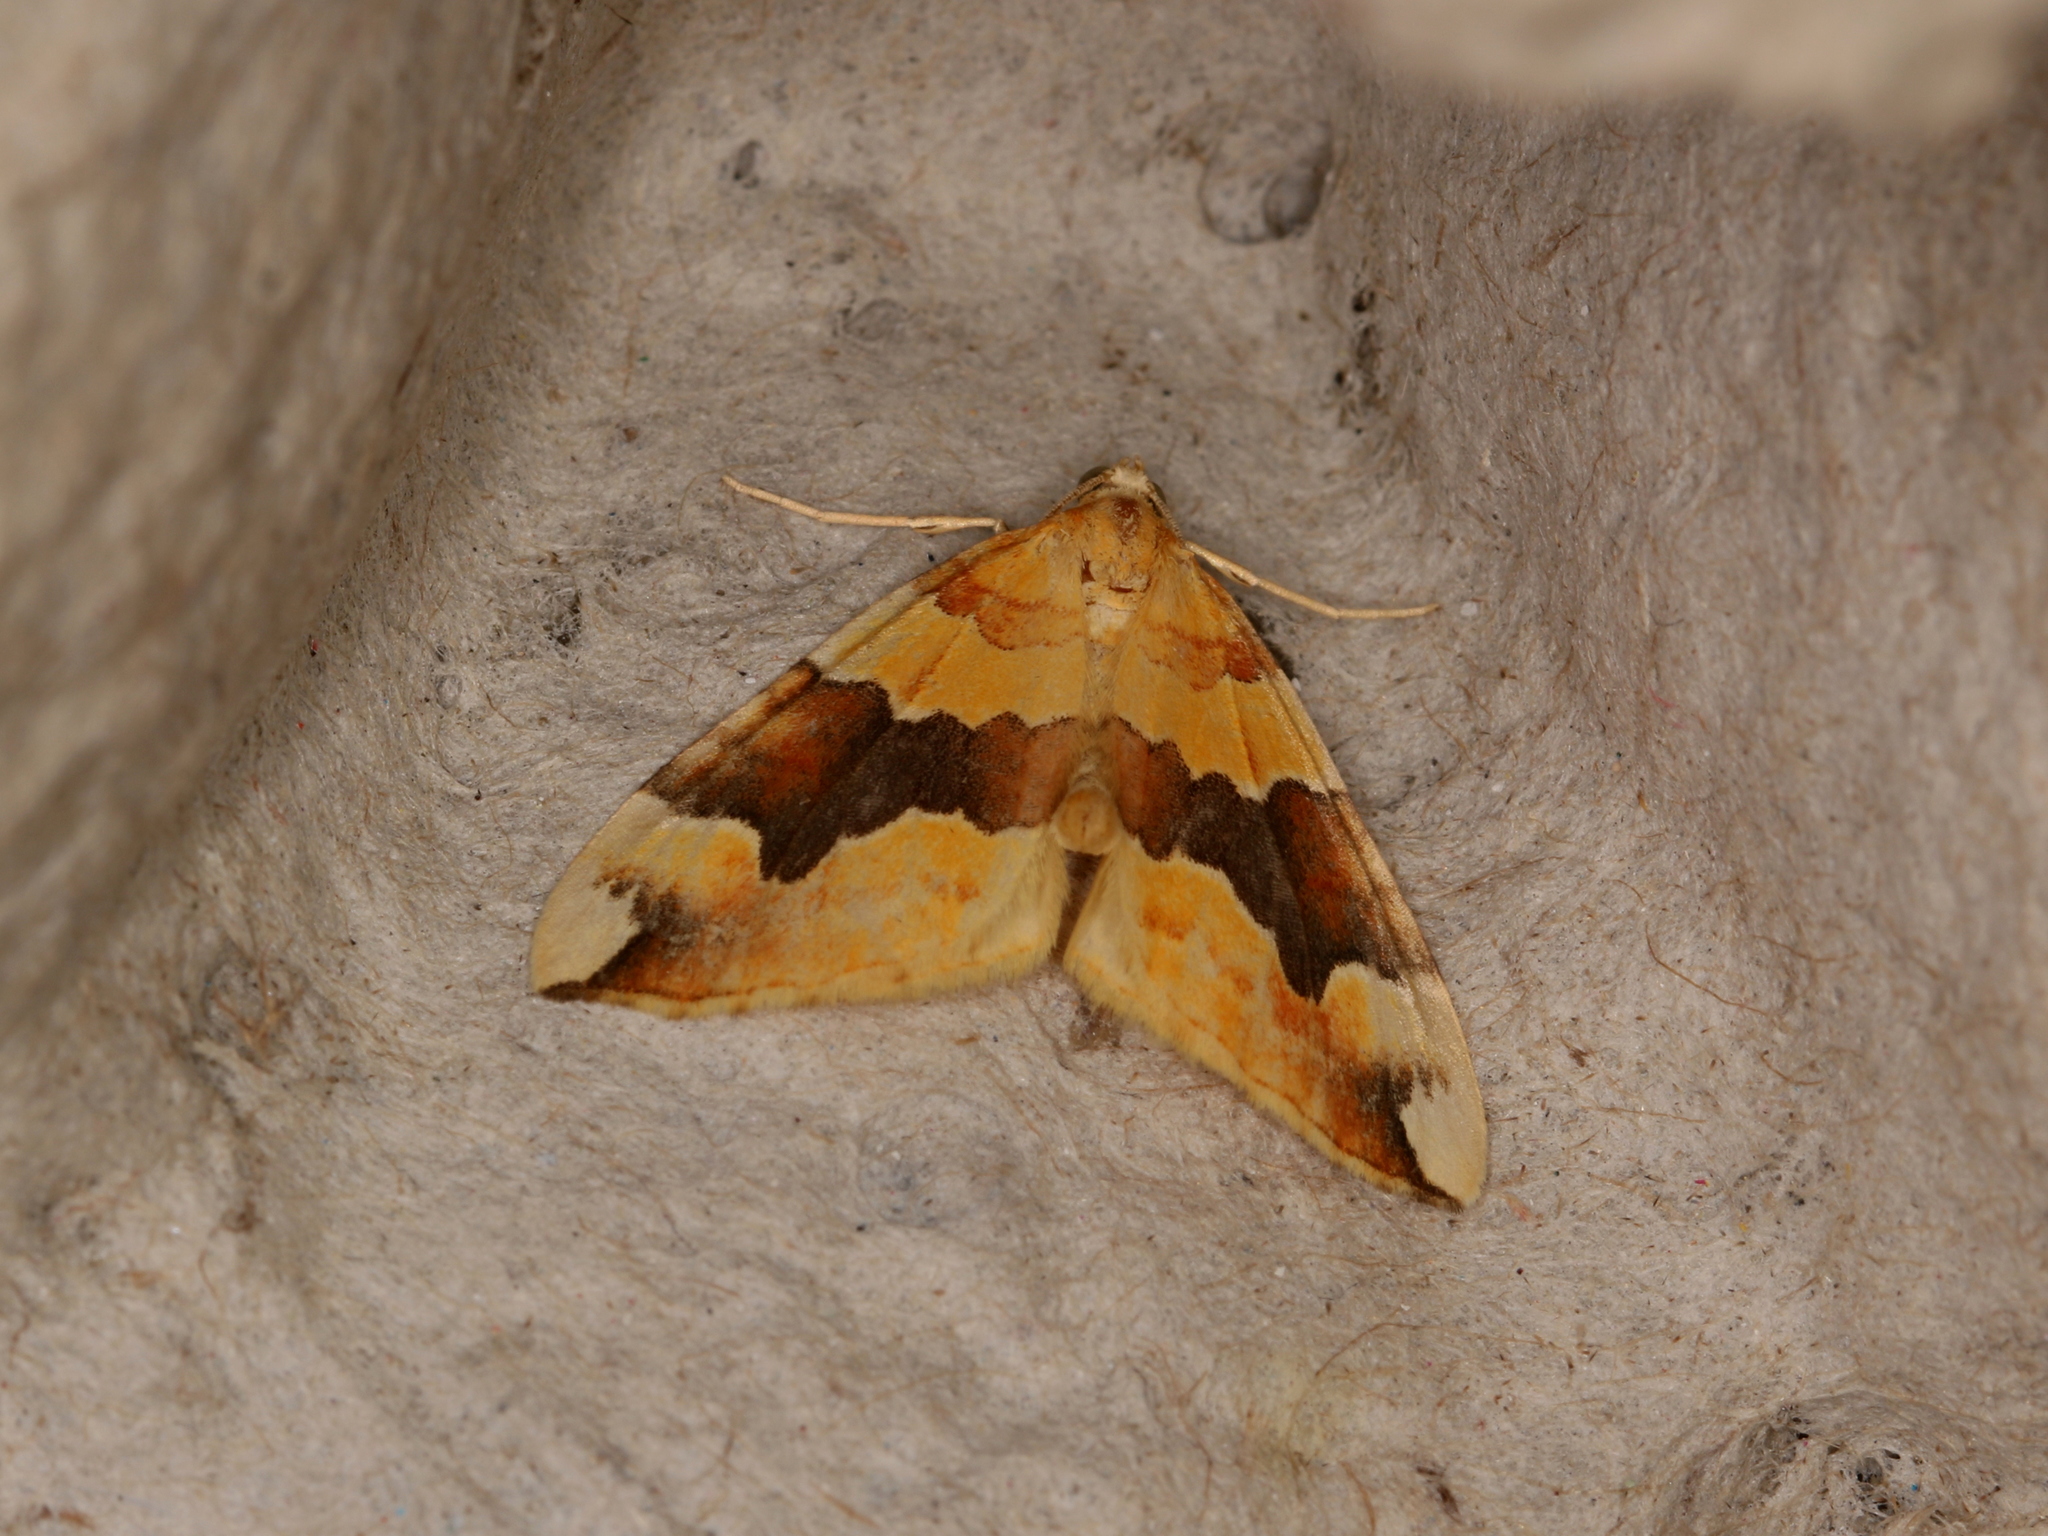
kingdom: Animalia
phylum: Arthropoda
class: Insecta
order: Lepidoptera
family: Geometridae
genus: Cidaria
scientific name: Cidaria fulvata
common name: Barred yellow
